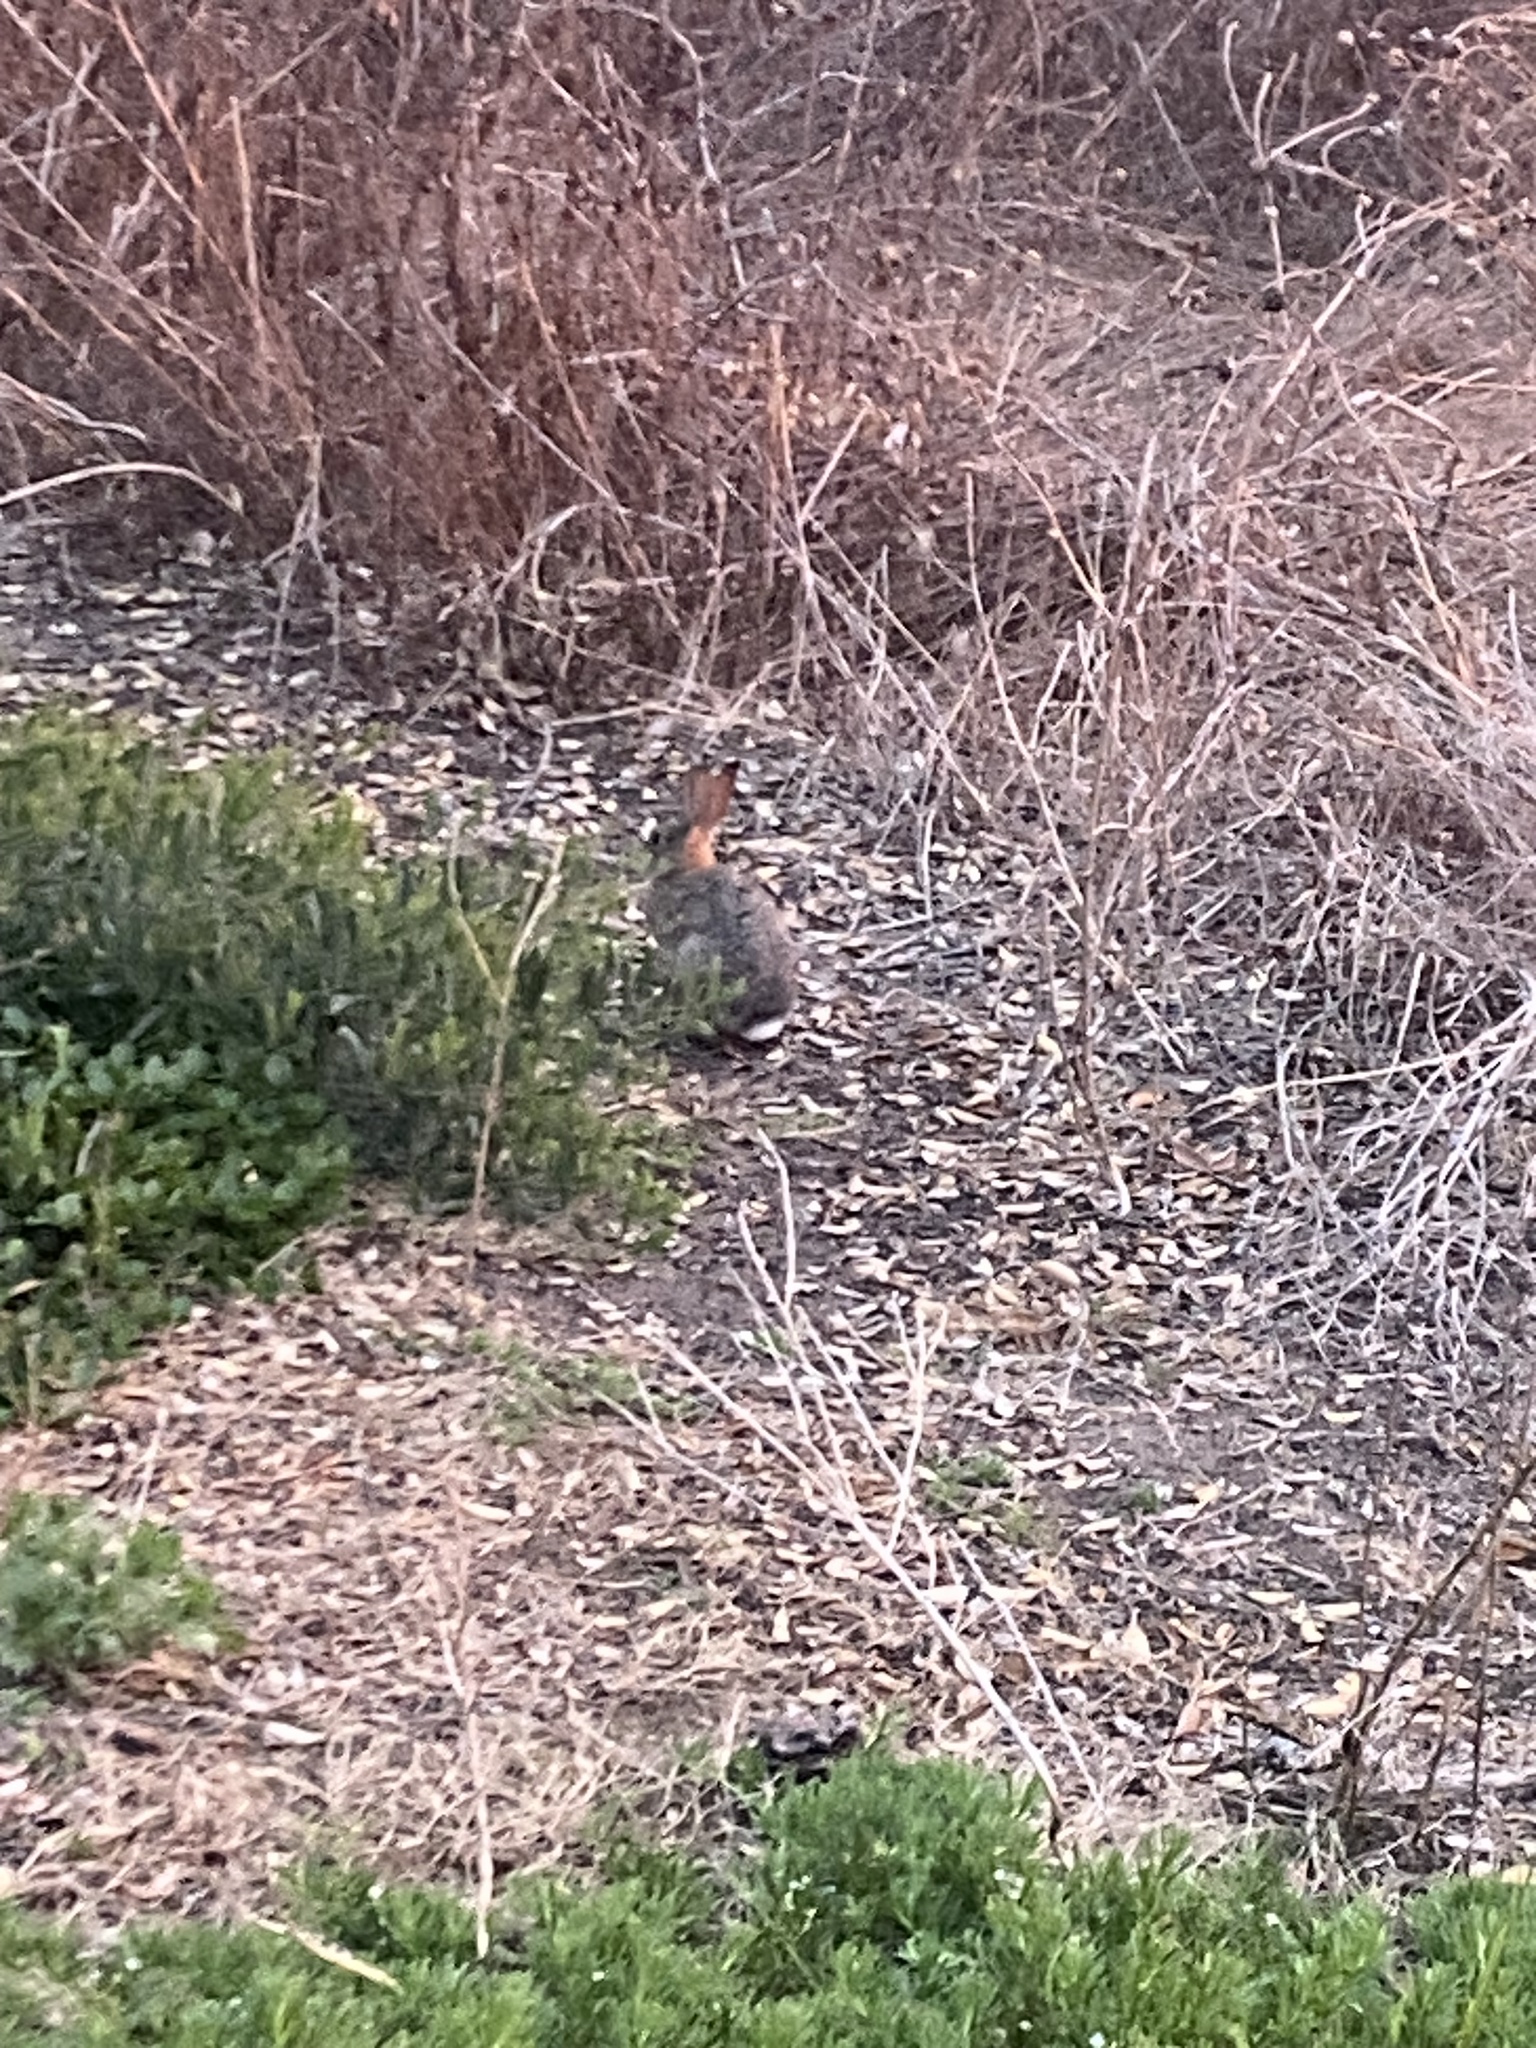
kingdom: Animalia
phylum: Chordata
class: Mammalia
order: Lagomorpha
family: Leporidae
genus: Sylvilagus
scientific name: Sylvilagus audubonii
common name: Desert cottontail
